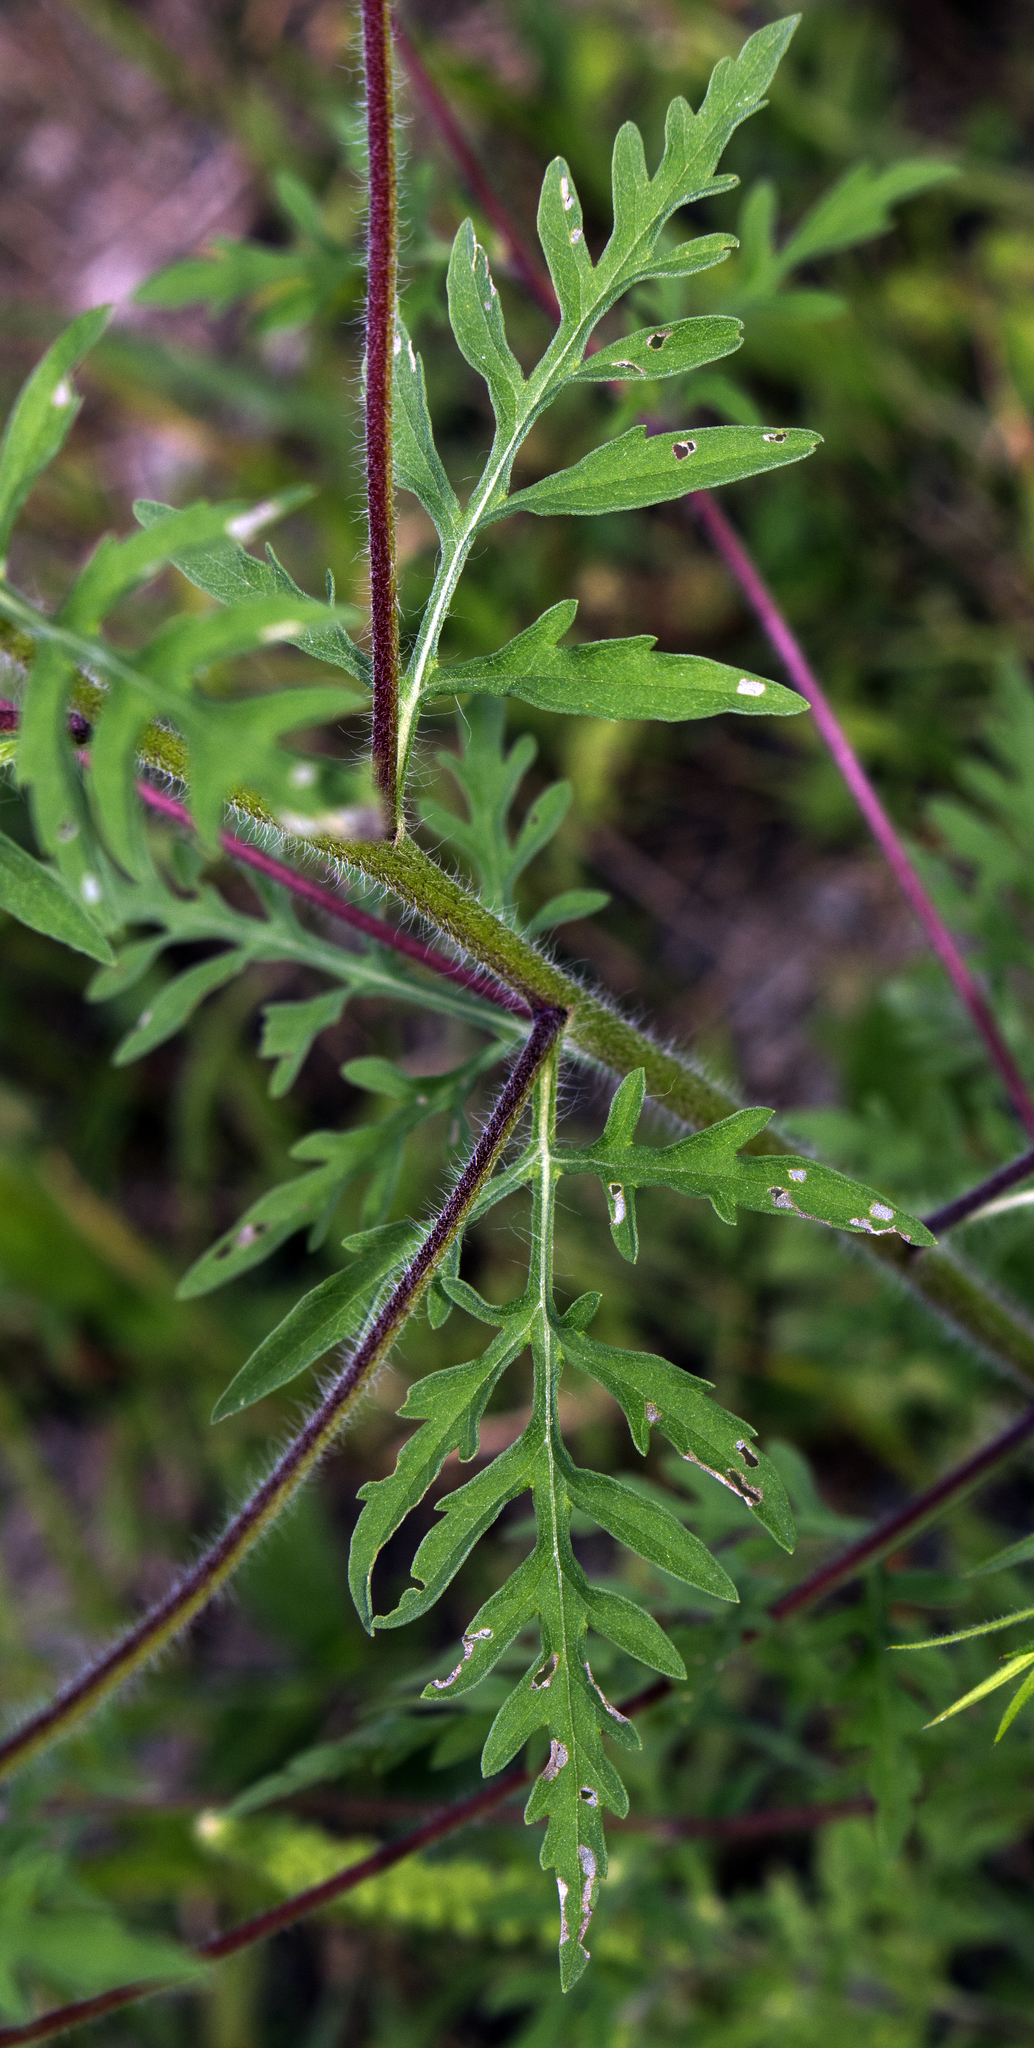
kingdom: Plantae
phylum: Tracheophyta
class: Magnoliopsida
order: Asterales
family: Asteraceae
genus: Ambrosia
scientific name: Ambrosia artemisiifolia
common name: Annual ragweed
